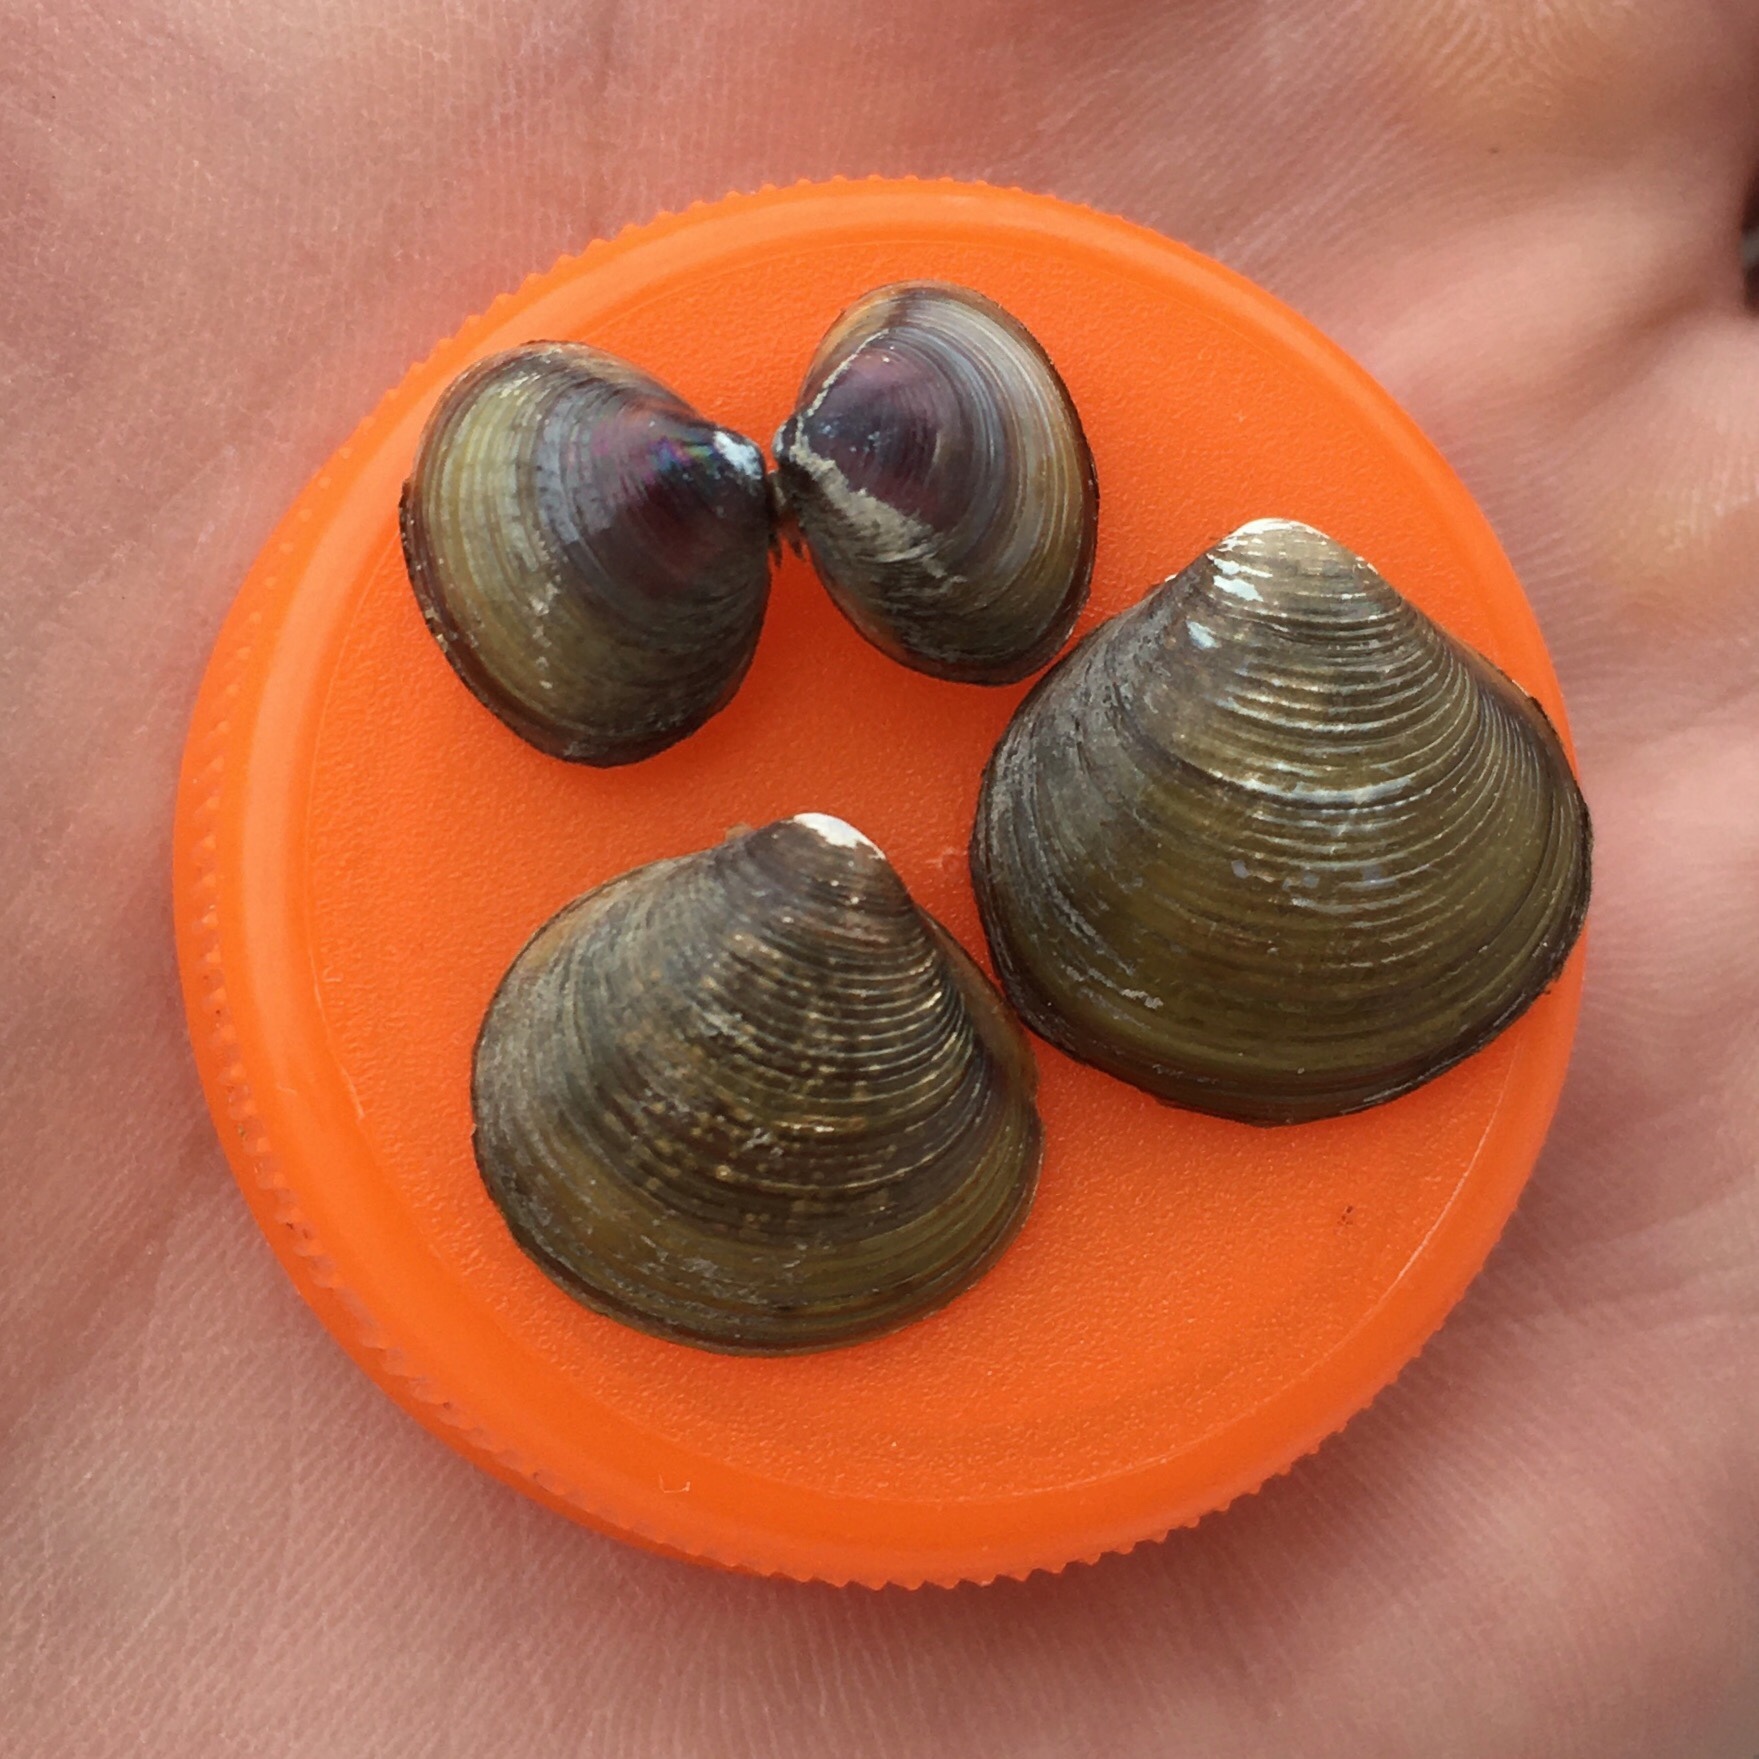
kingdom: Animalia
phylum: Mollusca
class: Bivalvia
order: Venerida
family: Cyrenidae
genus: Corbicula
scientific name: Corbicula largillierti
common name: Purple asian clam
